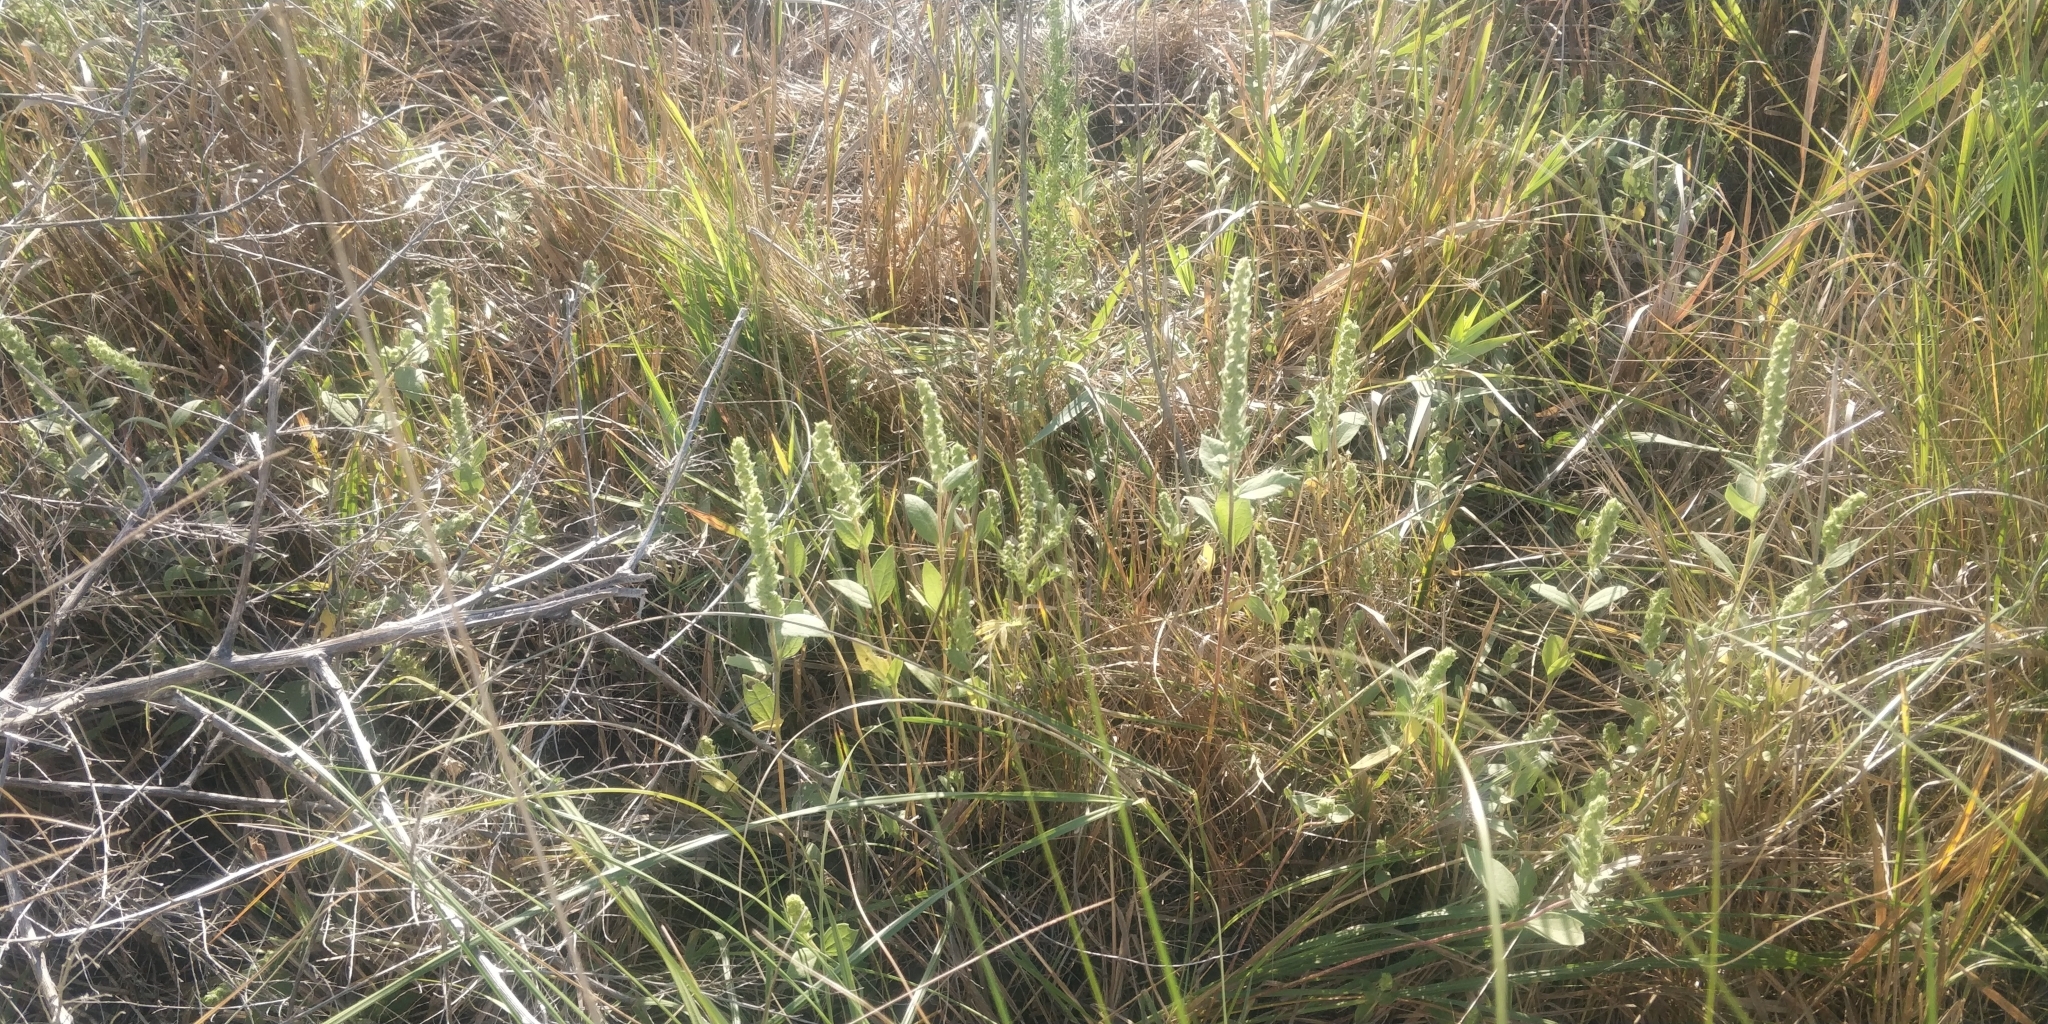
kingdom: Plantae
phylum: Tracheophyta
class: Magnoliopsida
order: Asterales
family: Asteraceae
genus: Iva
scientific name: Iva annua
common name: Marsh-elder
